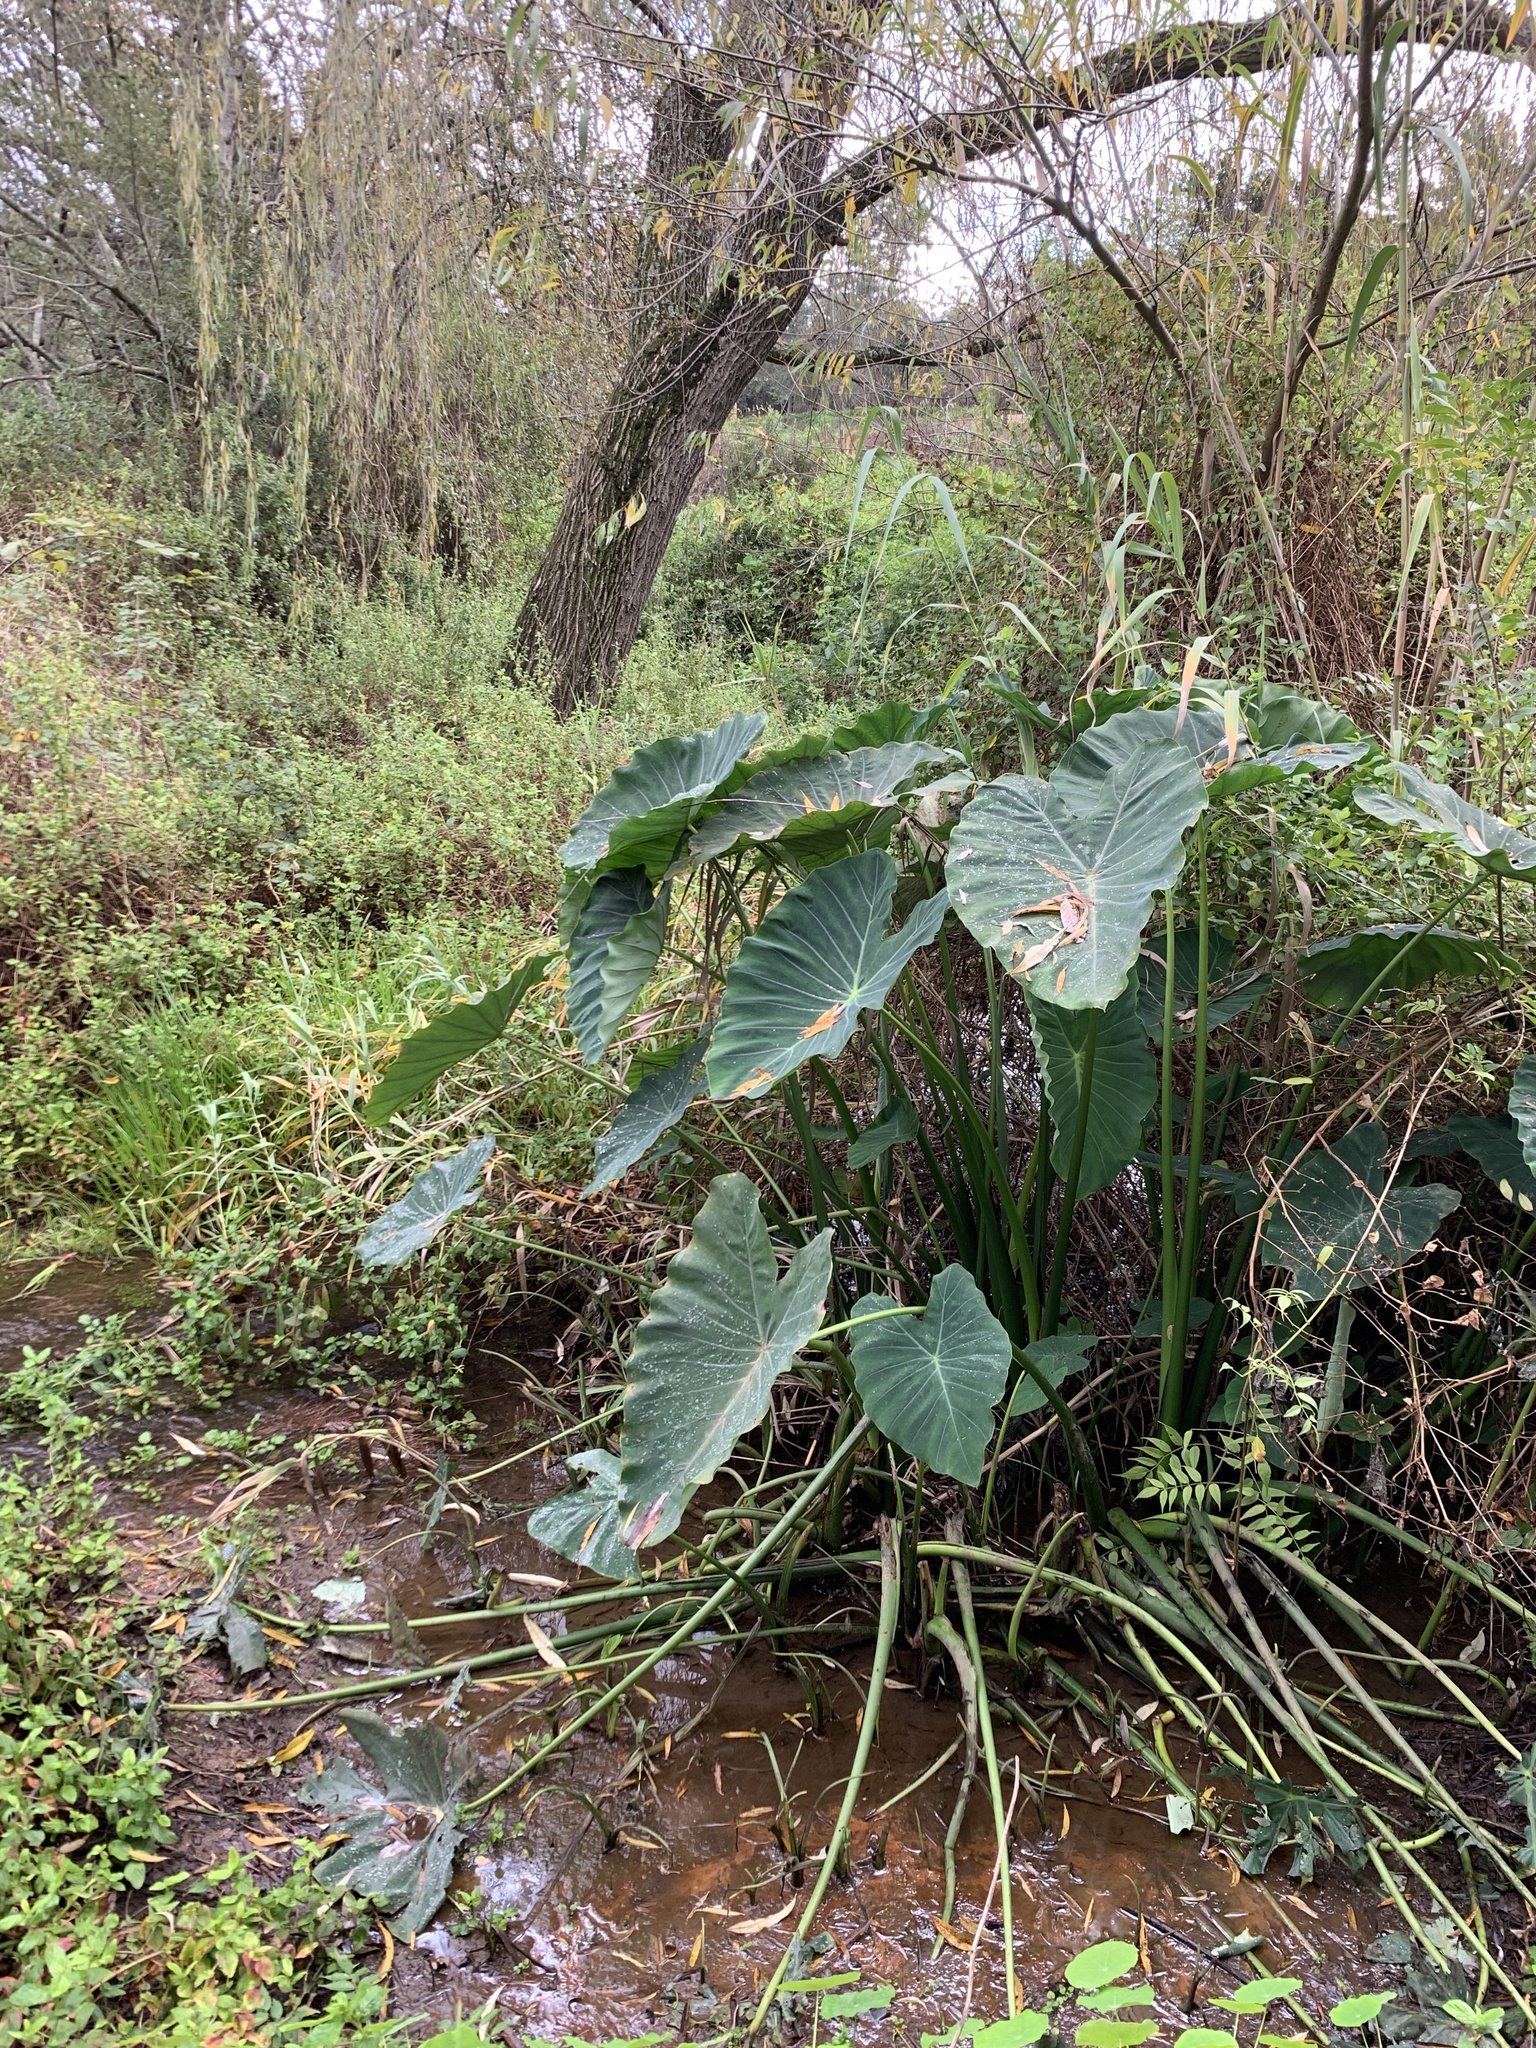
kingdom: Plantae
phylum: Tracheophyta
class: Liliopsida
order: Alismatales
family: Araceae
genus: Colocasia
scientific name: Colocasia esculenta
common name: Taro
